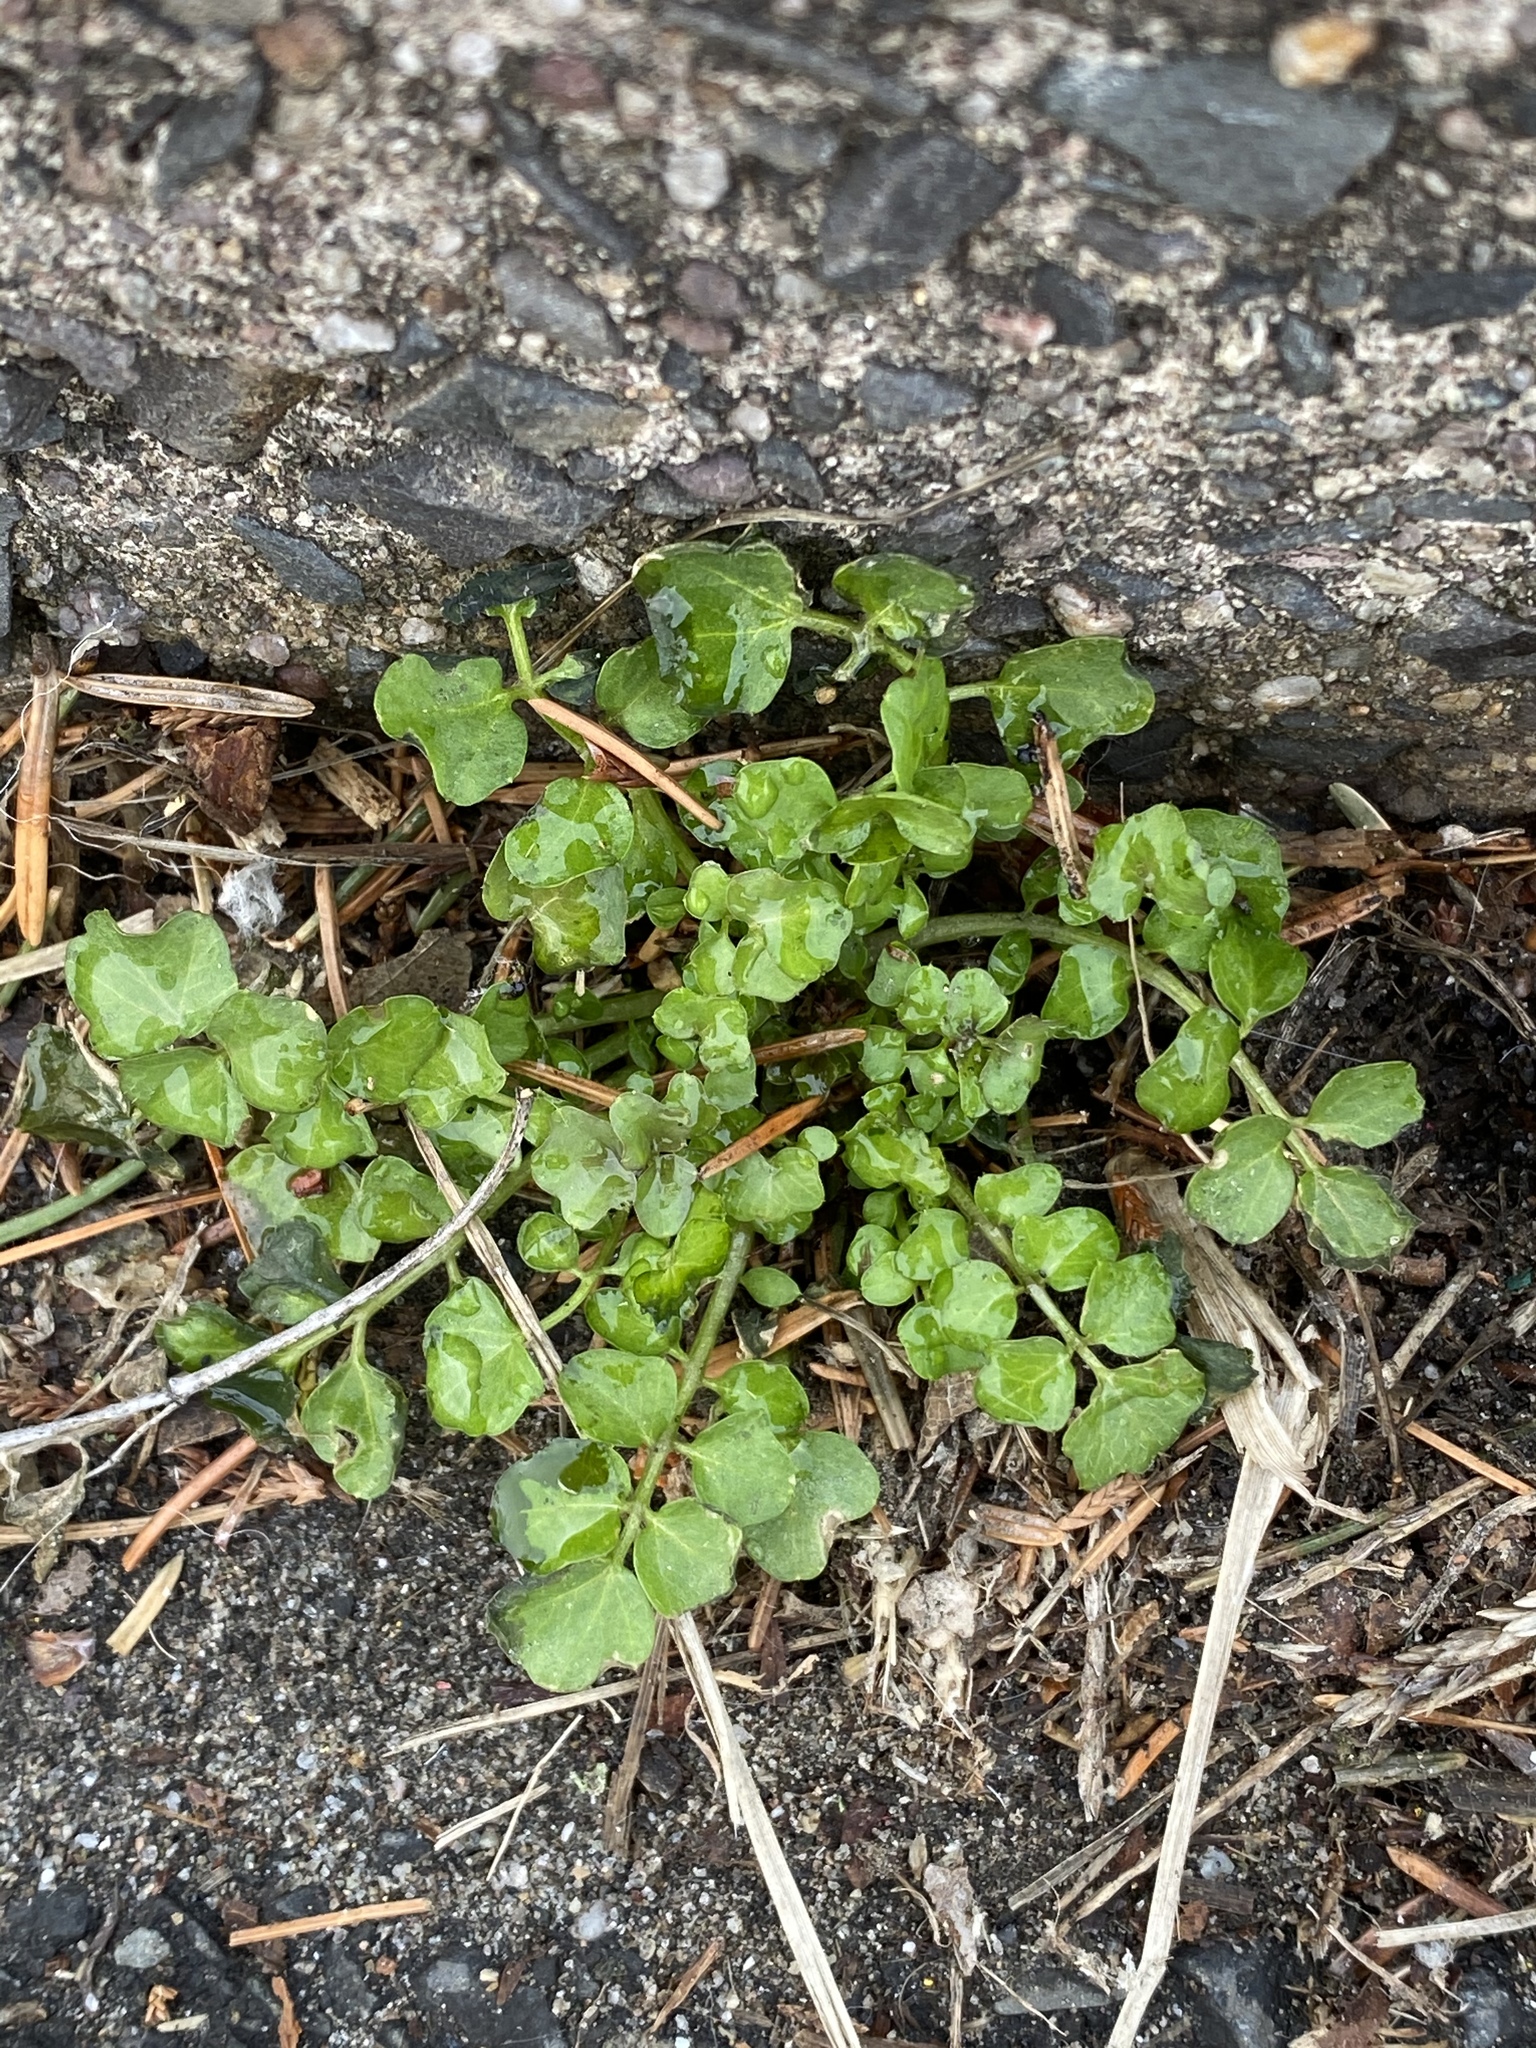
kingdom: Plantae
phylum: Tracheophyta
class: Magnoliopsida
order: Brassicales
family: Brassicaceae
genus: Cardamine
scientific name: Cardamine hirsuta
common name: Hairy bittercress
